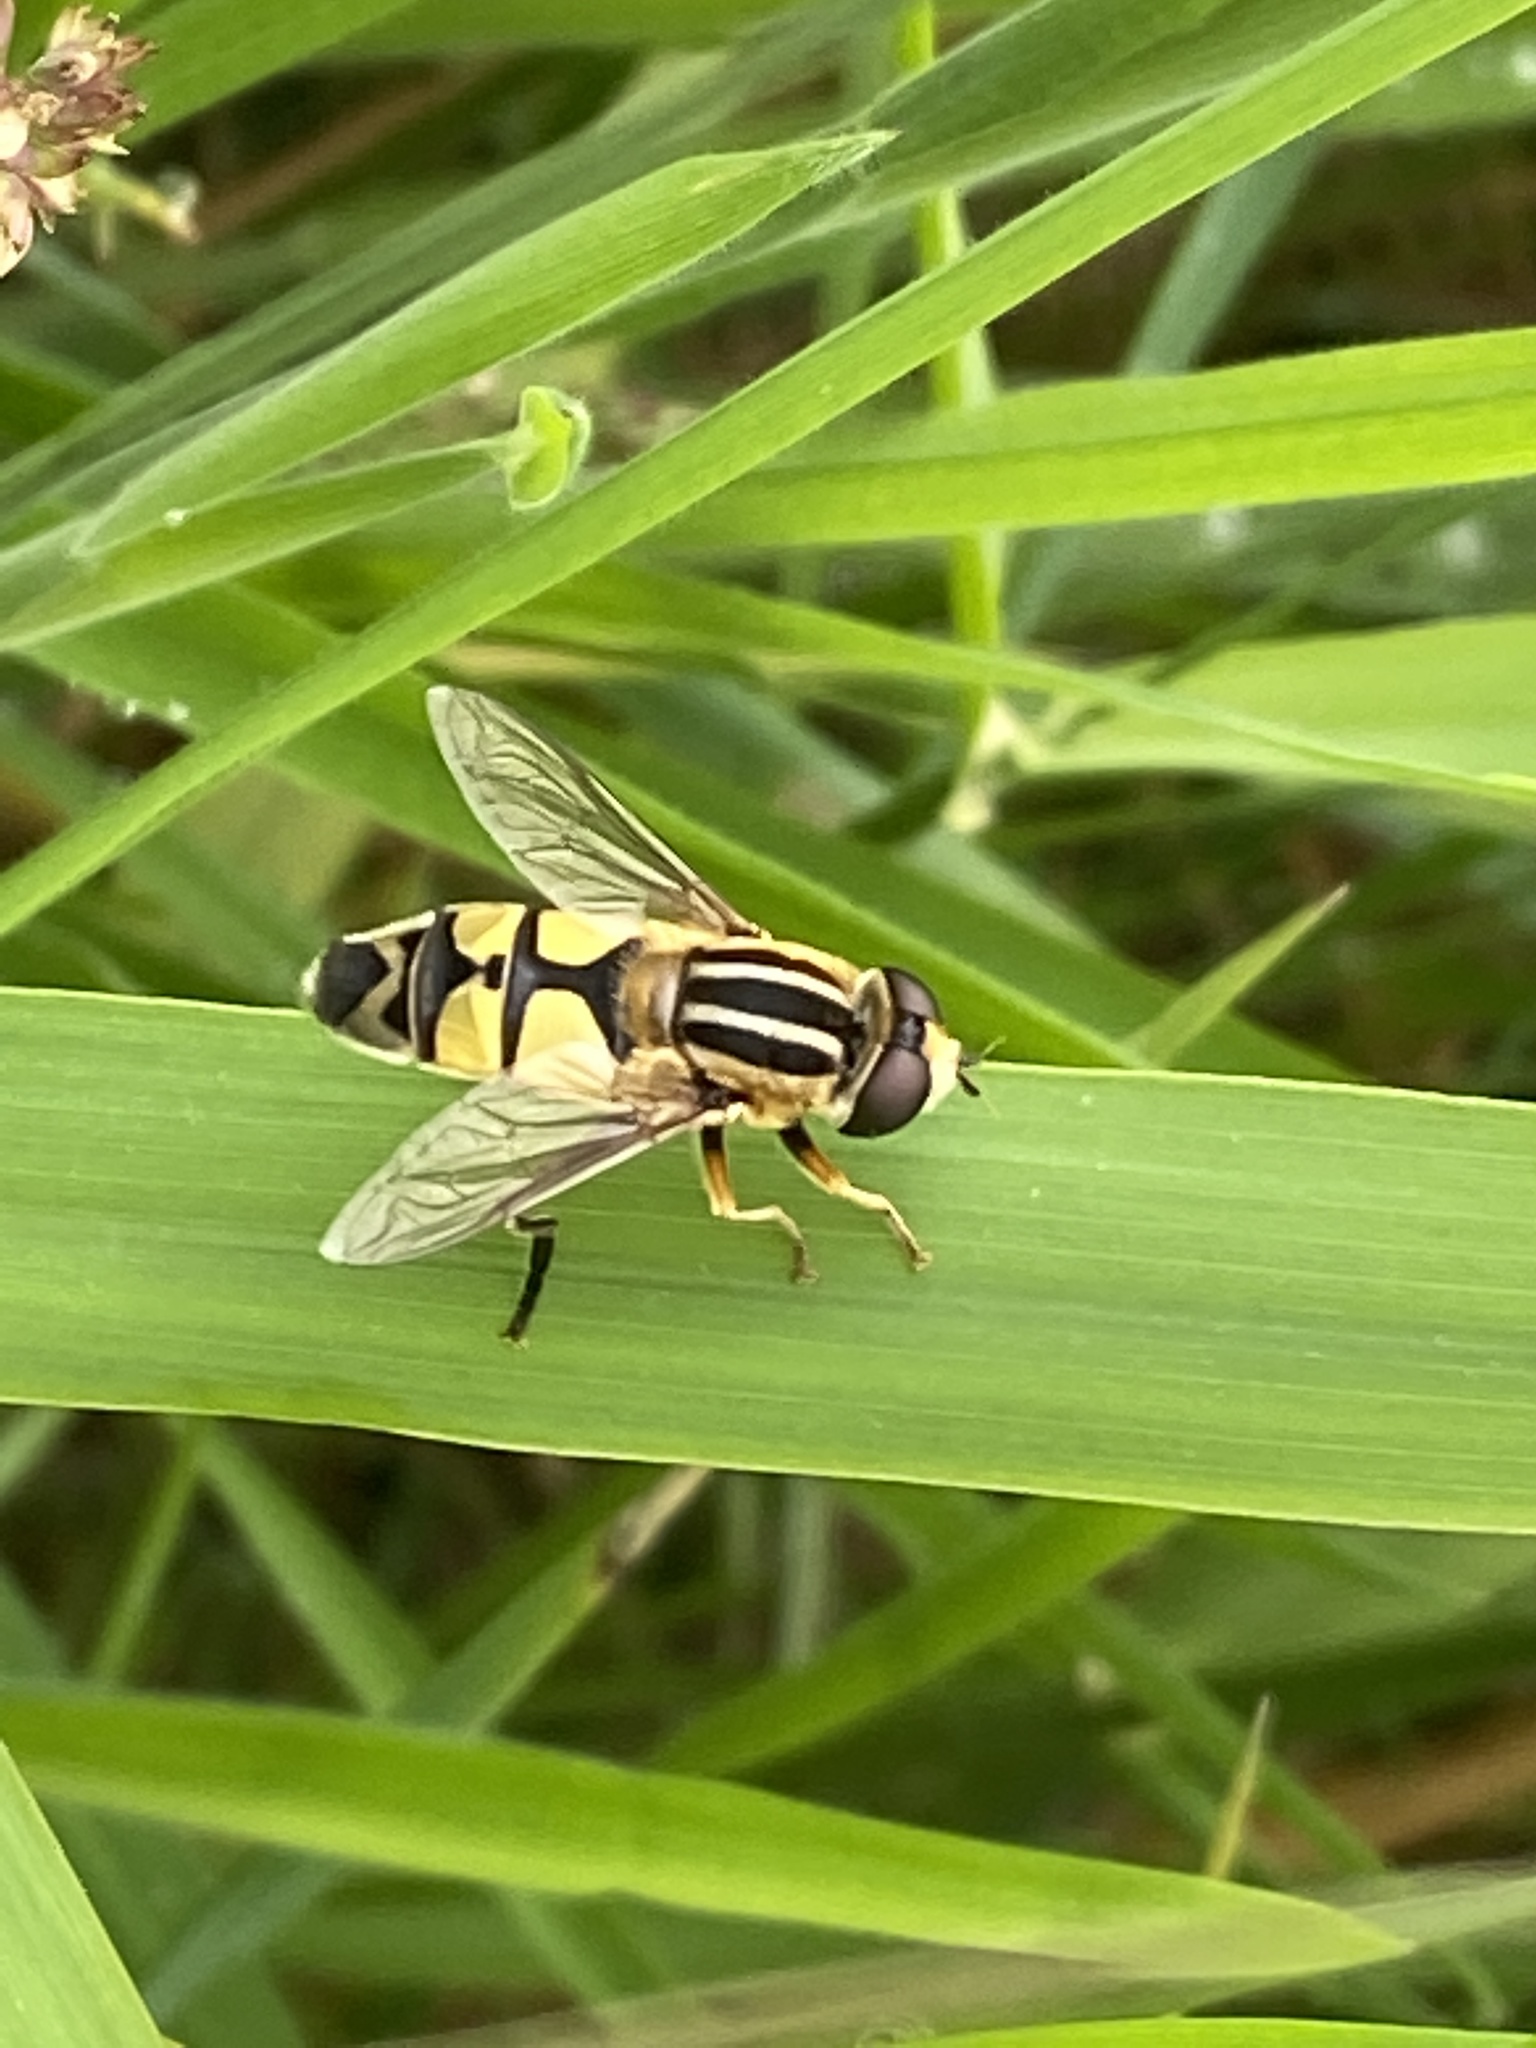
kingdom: Animalia
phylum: Arthropoda
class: Insecta
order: Diptera
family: Syrphidae
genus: Helophilus
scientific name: Helophilus trivittatus
